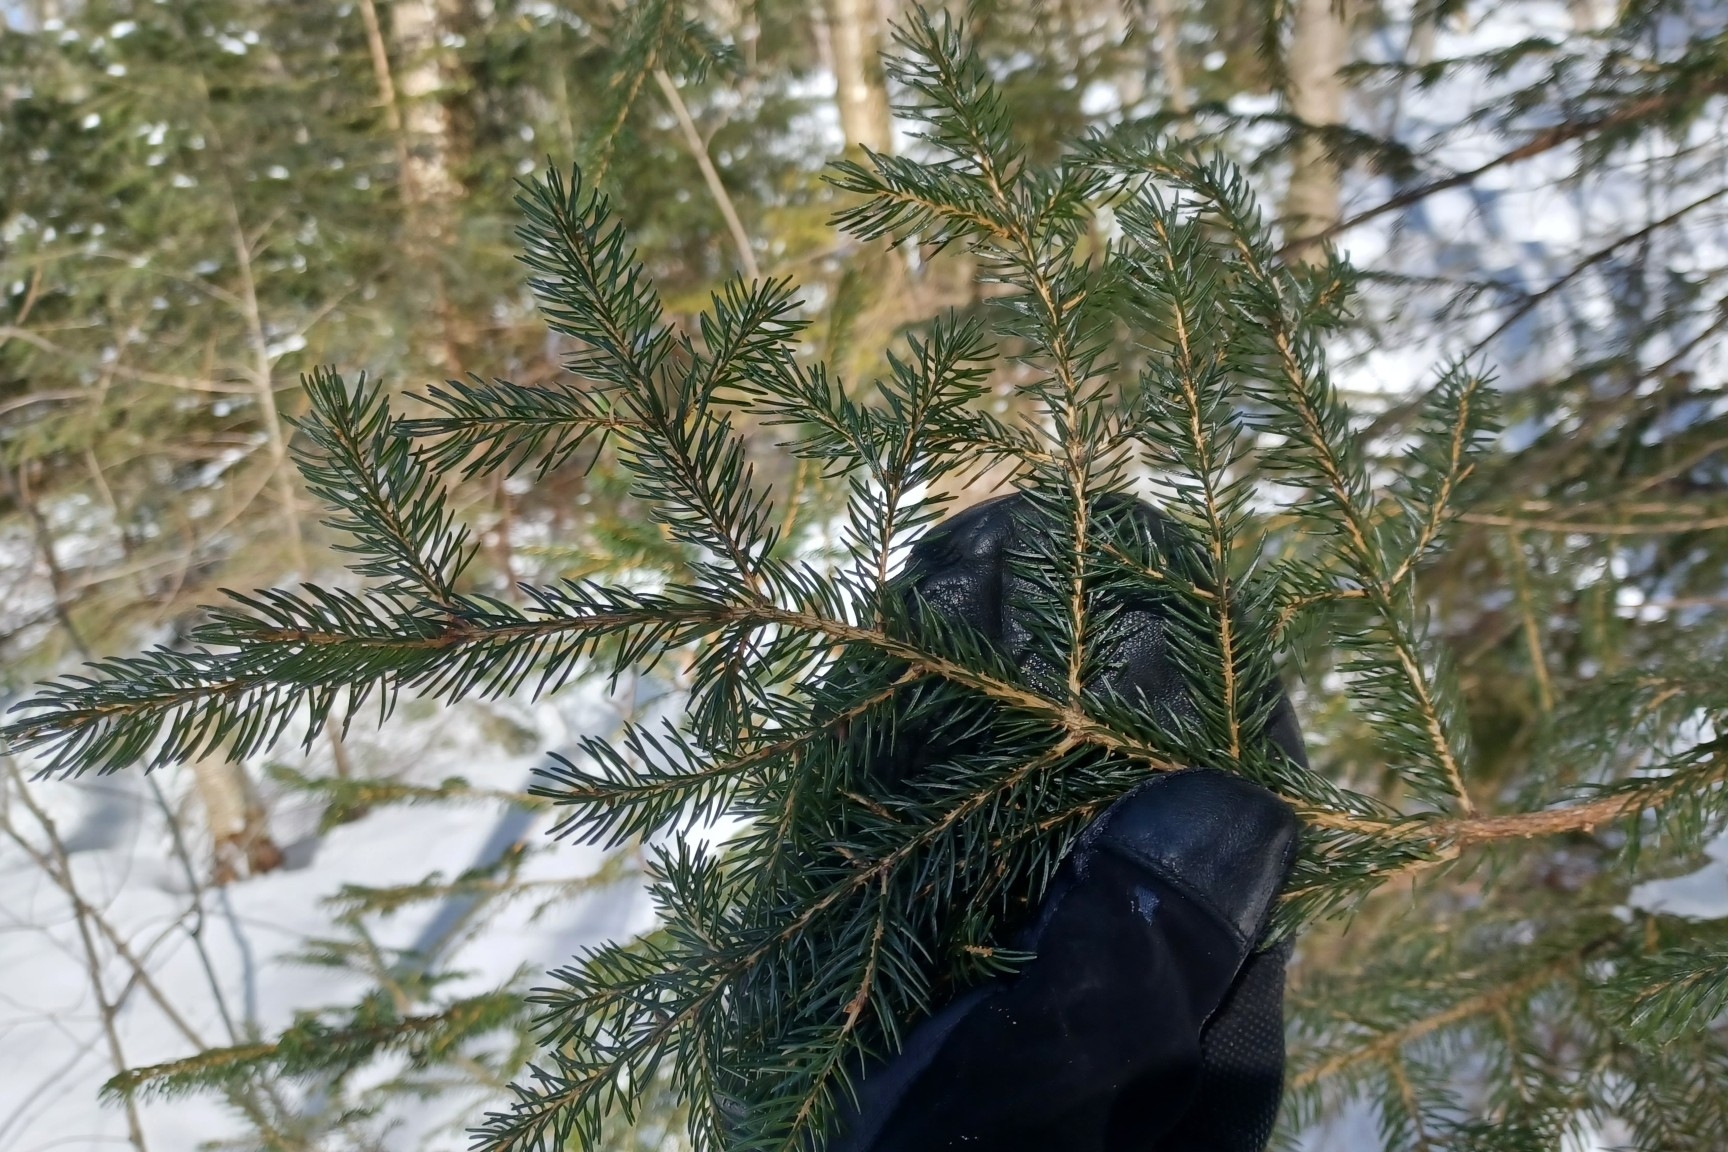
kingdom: Plantae
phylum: Tracheophyta
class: Pinopsida
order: Pinales
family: Pinaceae
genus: Picea
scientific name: Picea rubens
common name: Red spruce
